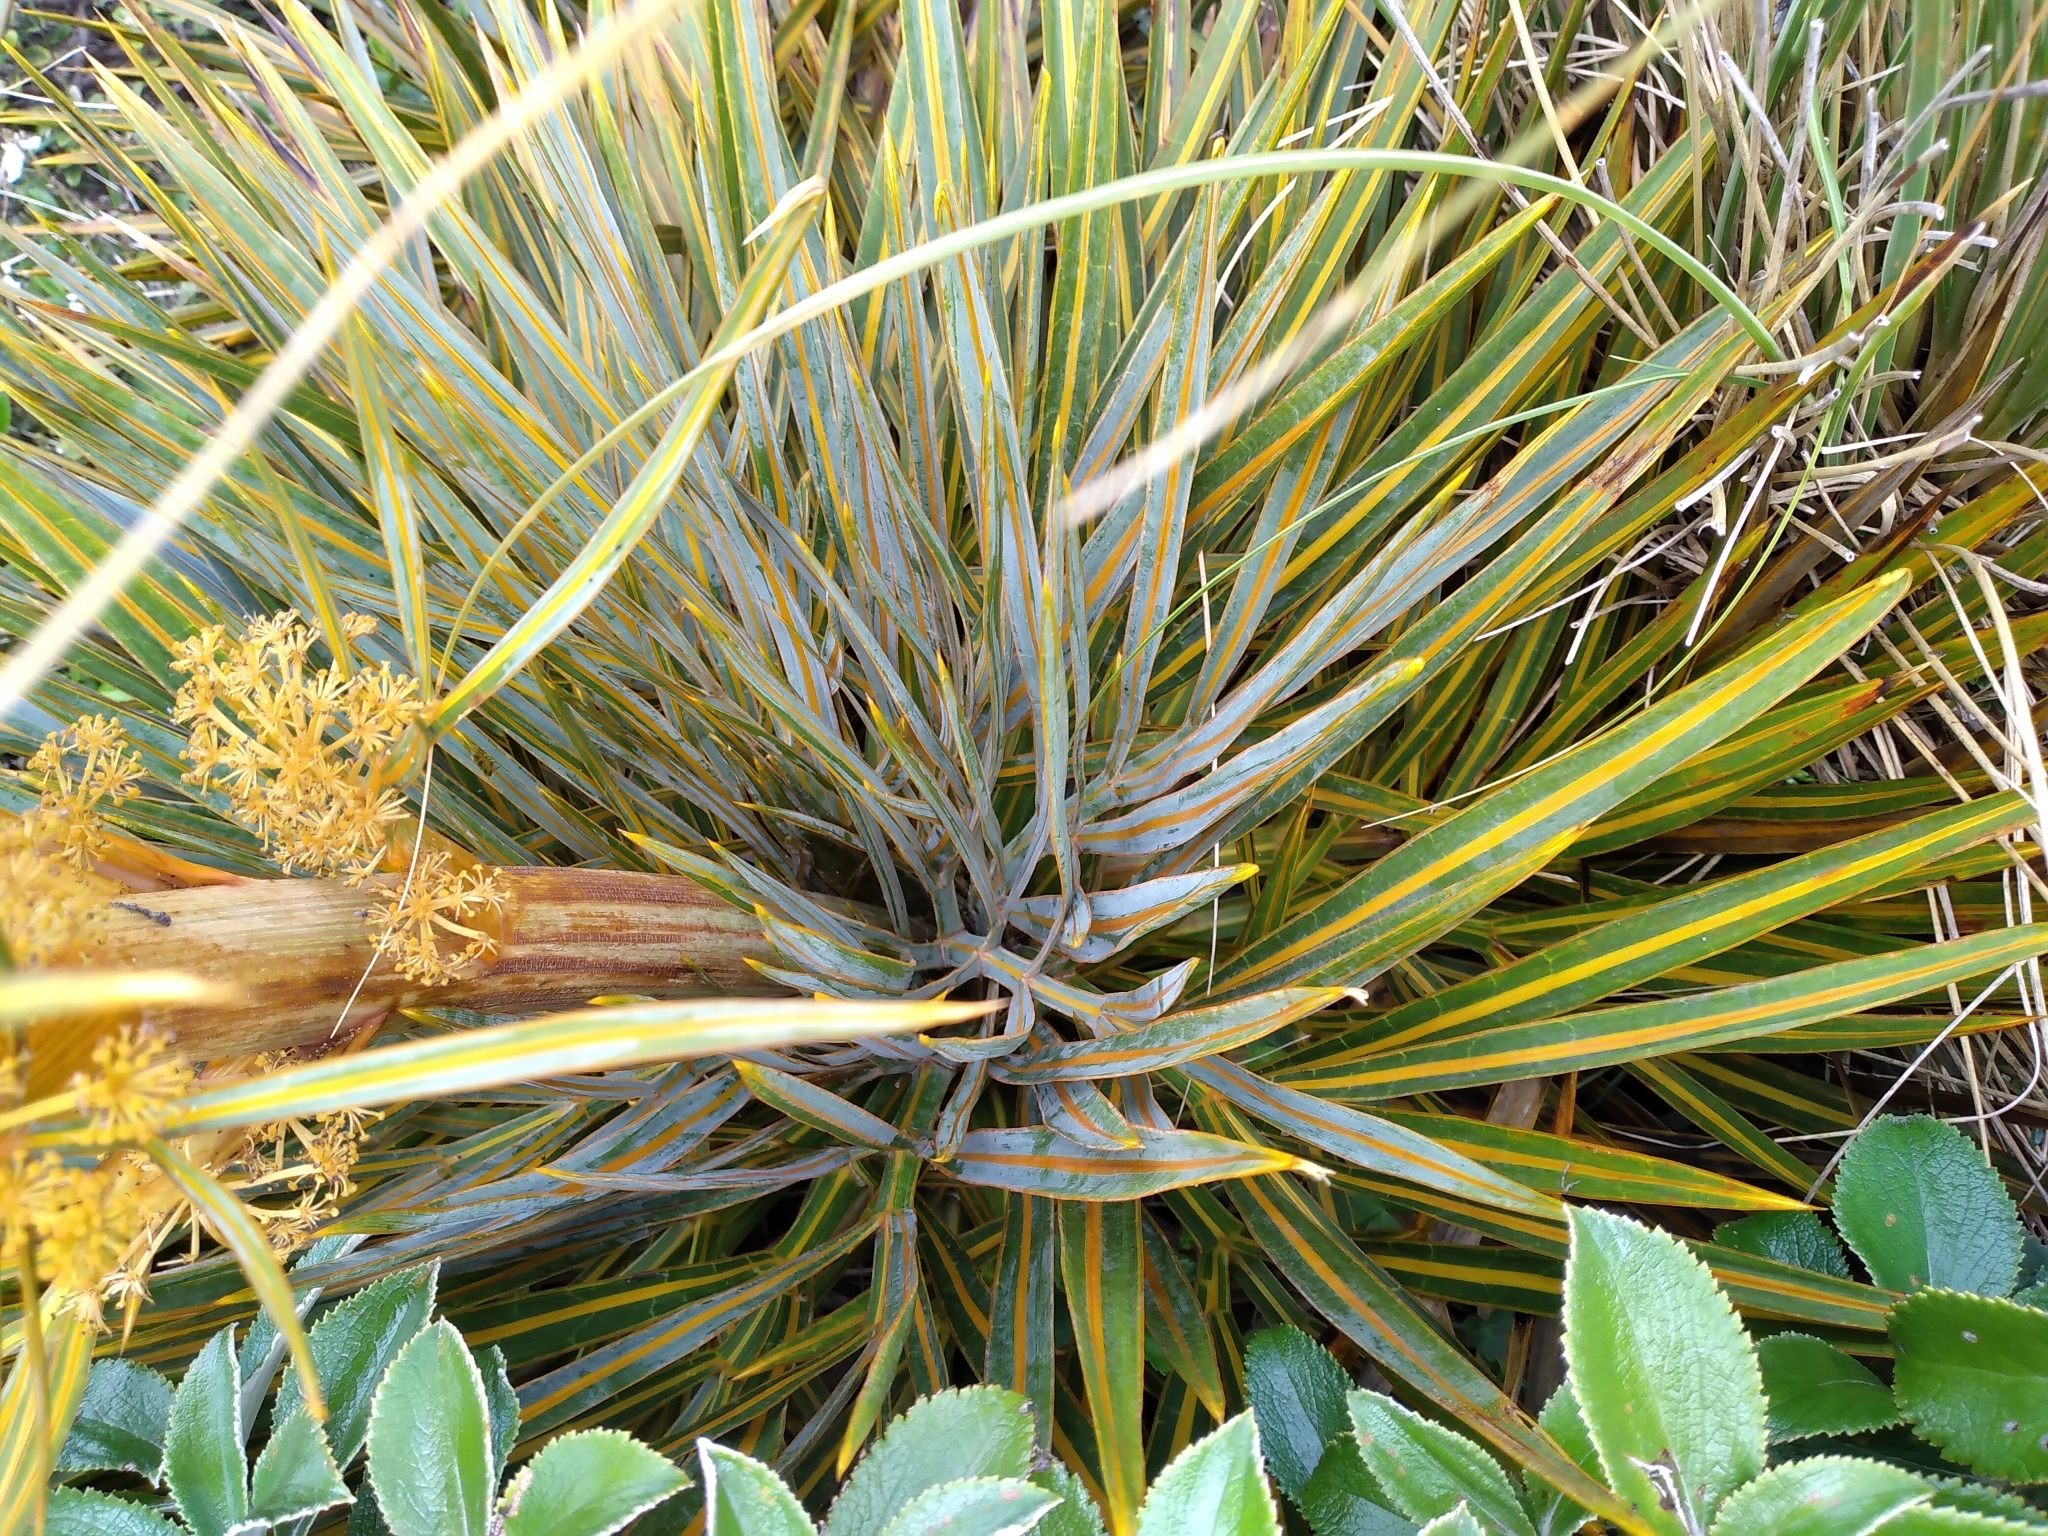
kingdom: Plantae
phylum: Tracheophyta
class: Magnoliopsida
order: Apiales
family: Apiaceae
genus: Aciphylla
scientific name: Aciphylla colensoi
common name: Colenso's spaniard
